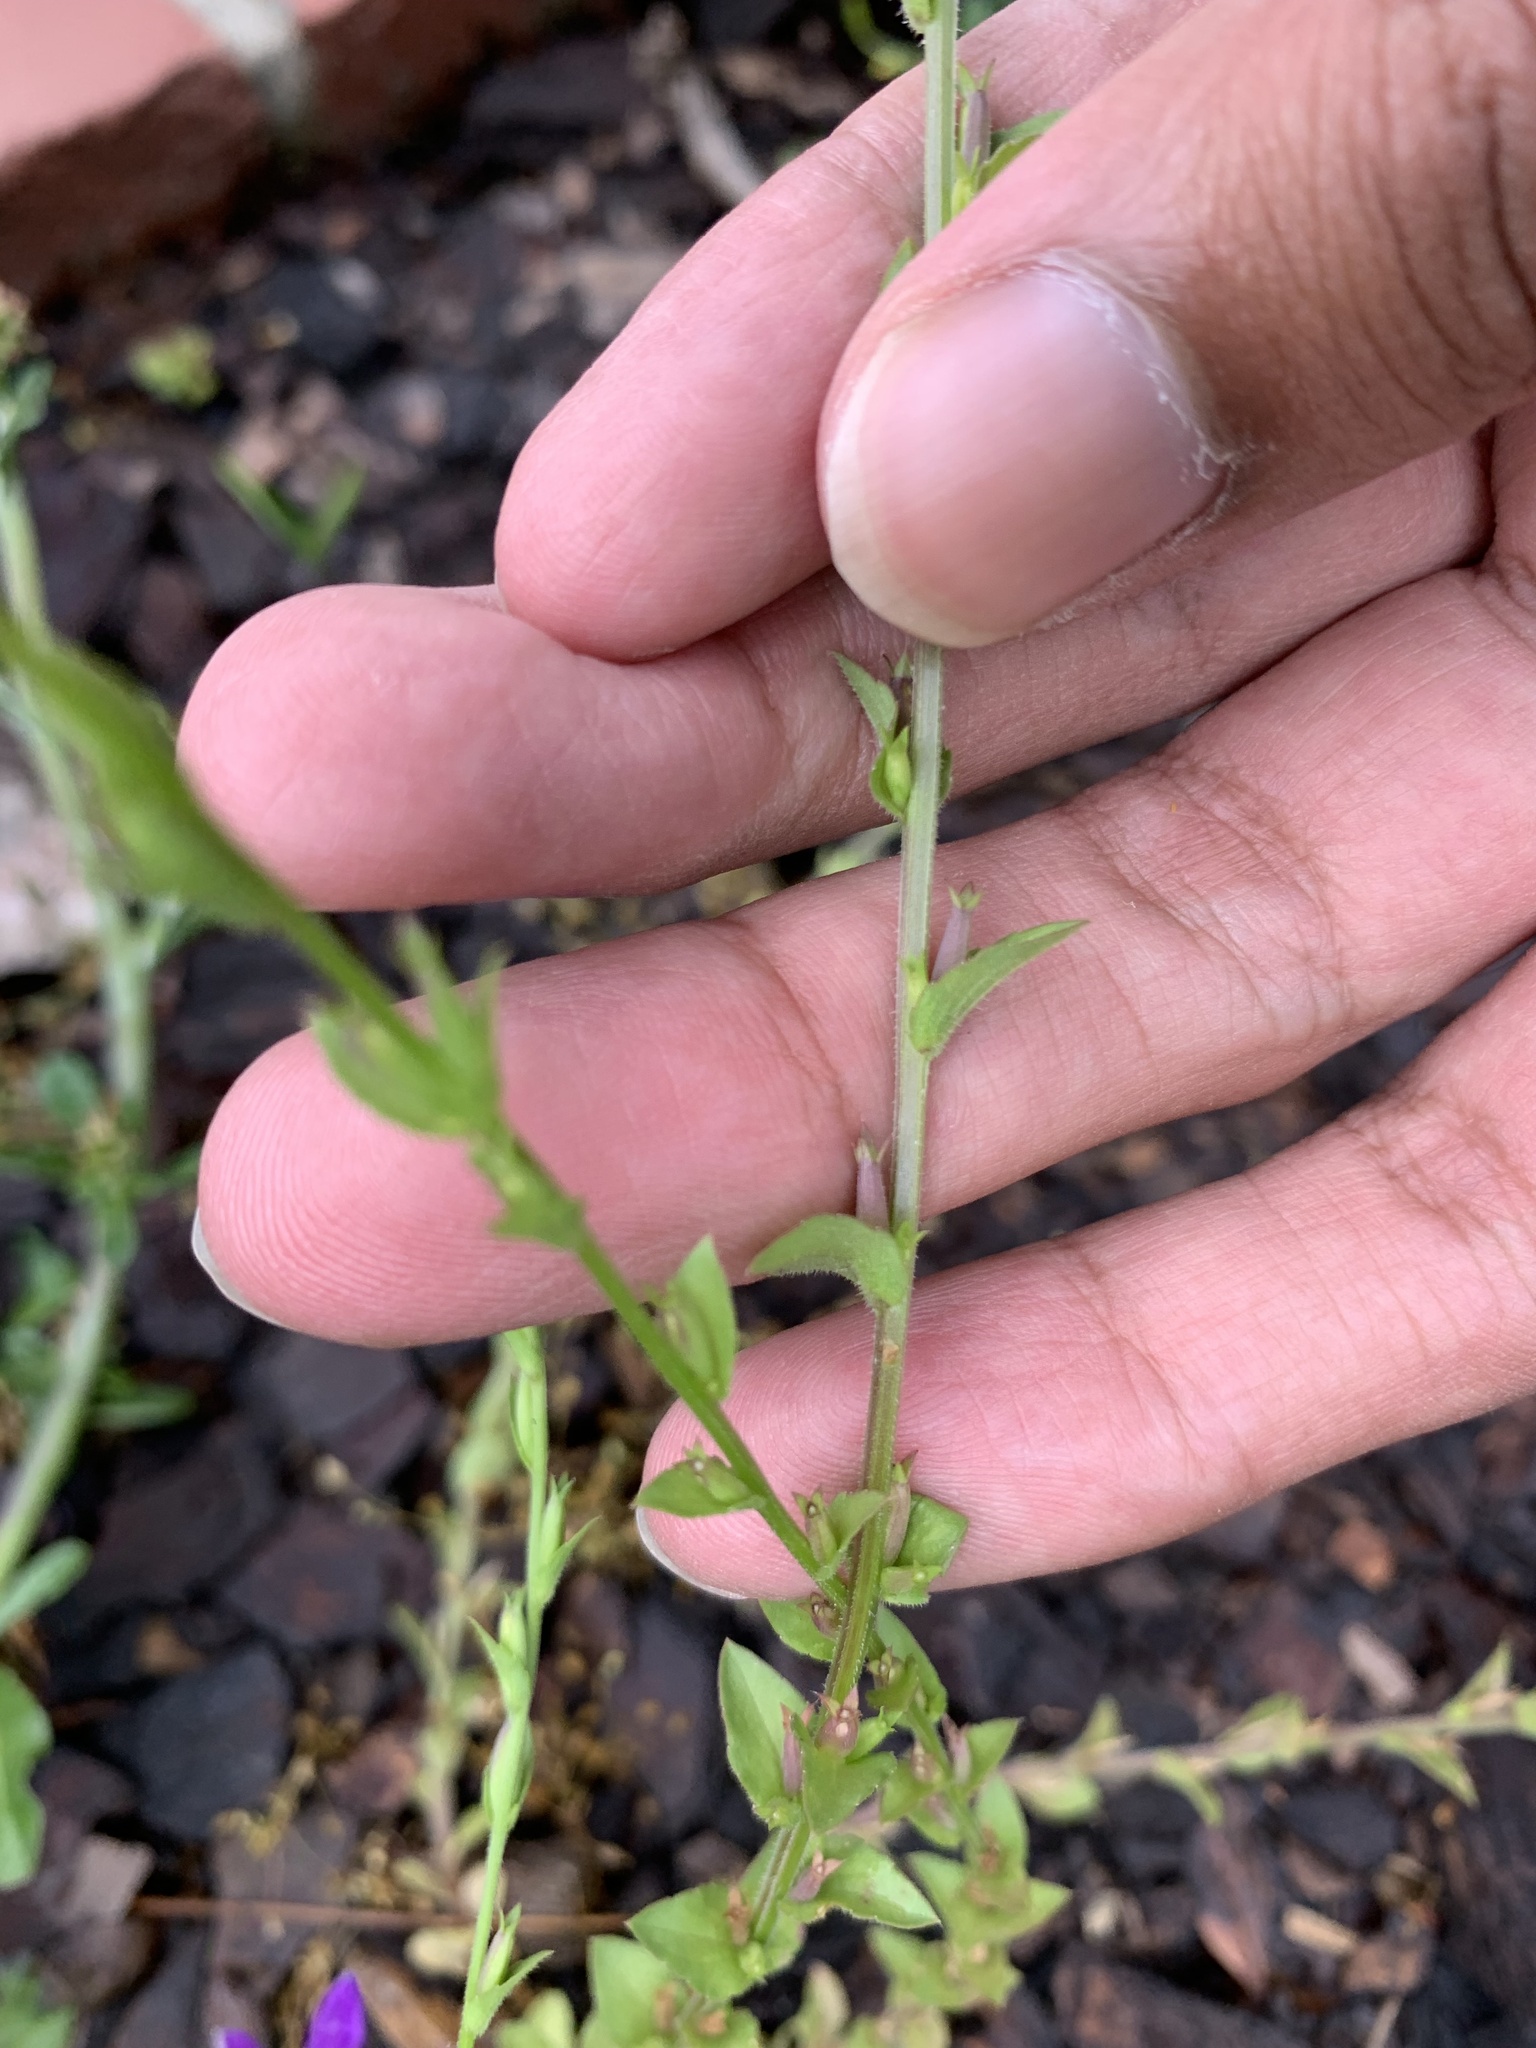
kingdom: Plantae
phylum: Tracheophyta
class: Magnoliopsida
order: Asterales
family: Campanulaceae
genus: Triodanis
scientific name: Triodanis biflora
